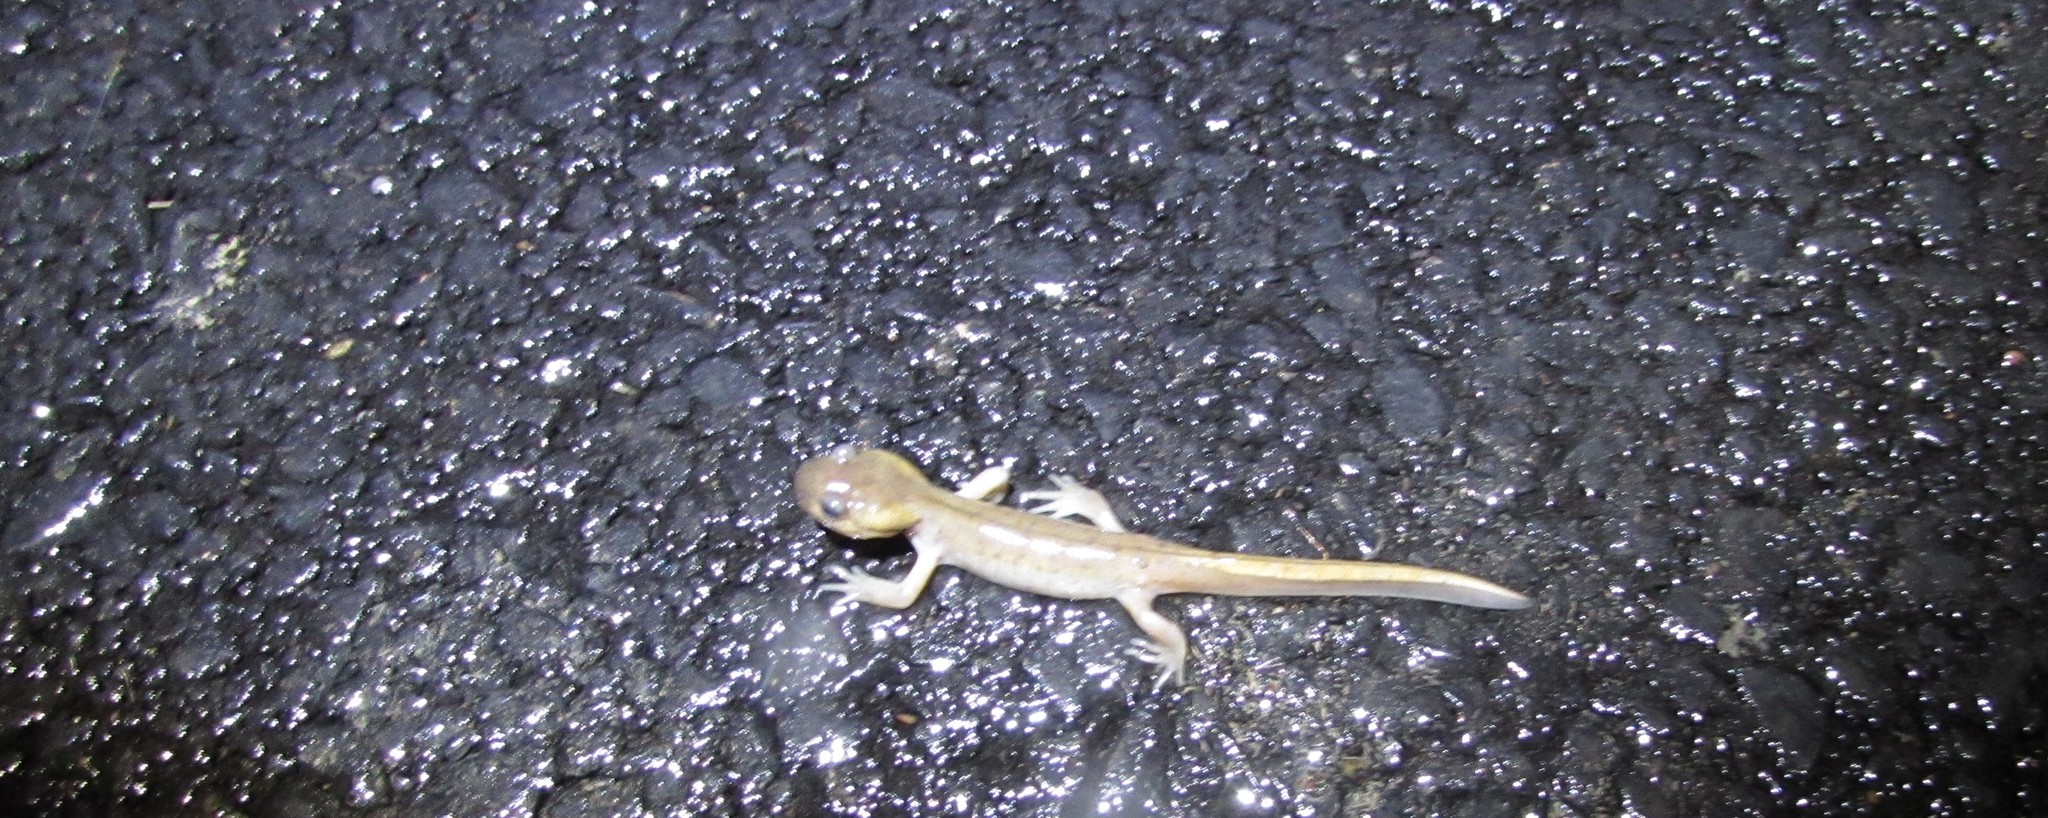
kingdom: Animalia
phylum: Chordata
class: Amphibia
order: Caudata
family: Ambystomatidae
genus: Ambystoma
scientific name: Ambystoma gracile
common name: Northwestern salamander
